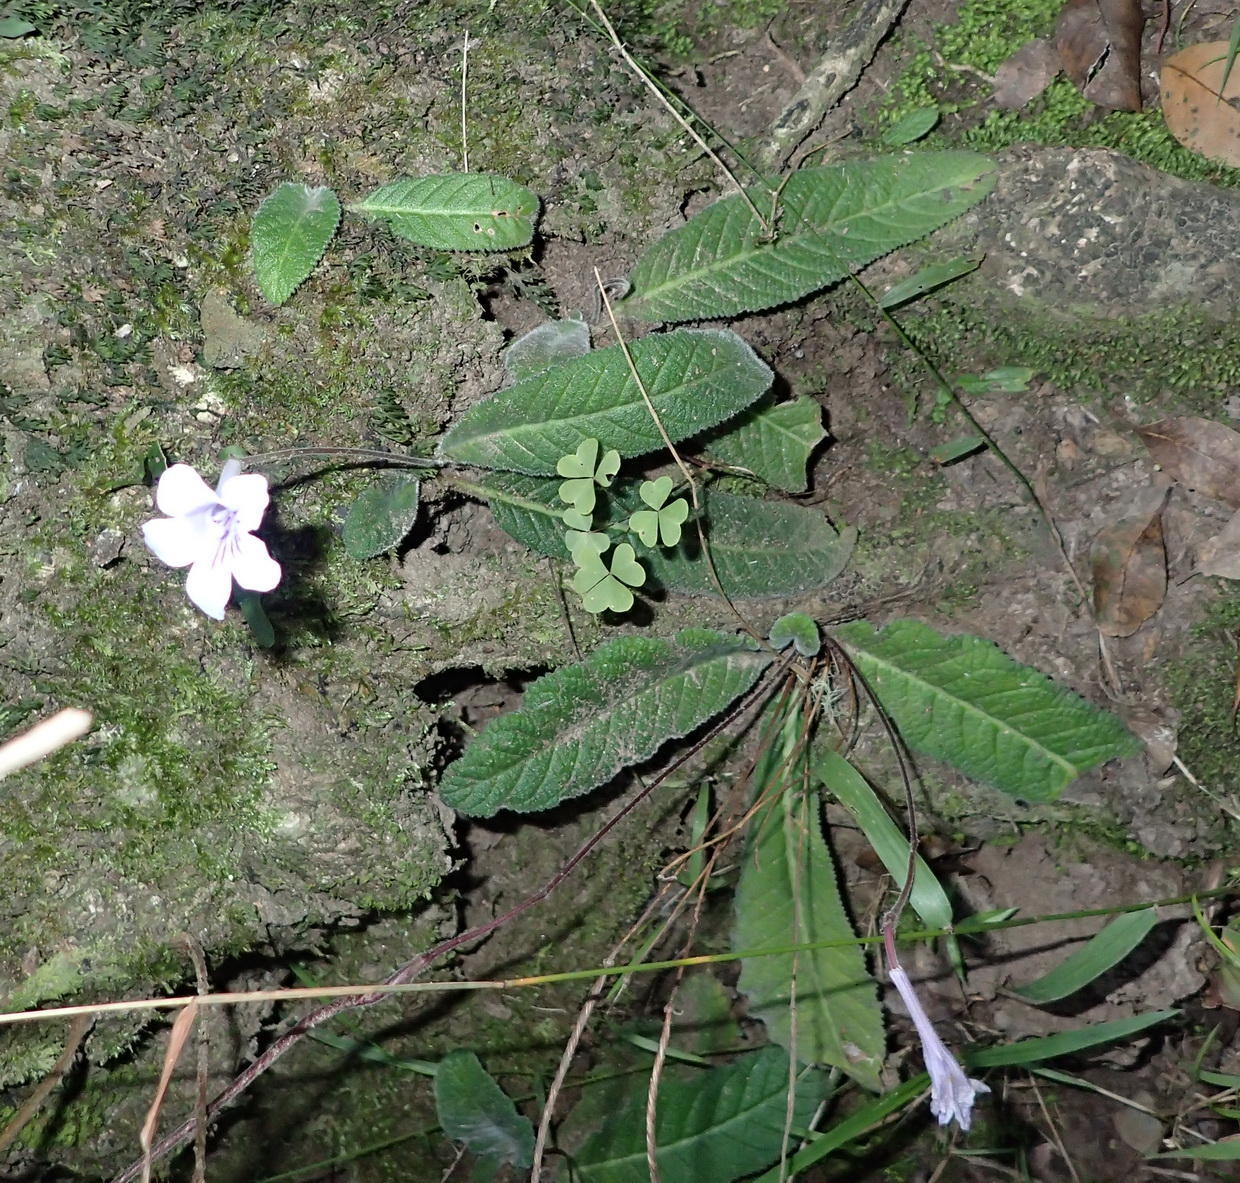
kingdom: Plantae
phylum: Tracheophyta
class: Magnoliopsida
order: Lamiales
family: Gesneriaceae
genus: Streptocarpus
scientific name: Streptocarpus rexii
